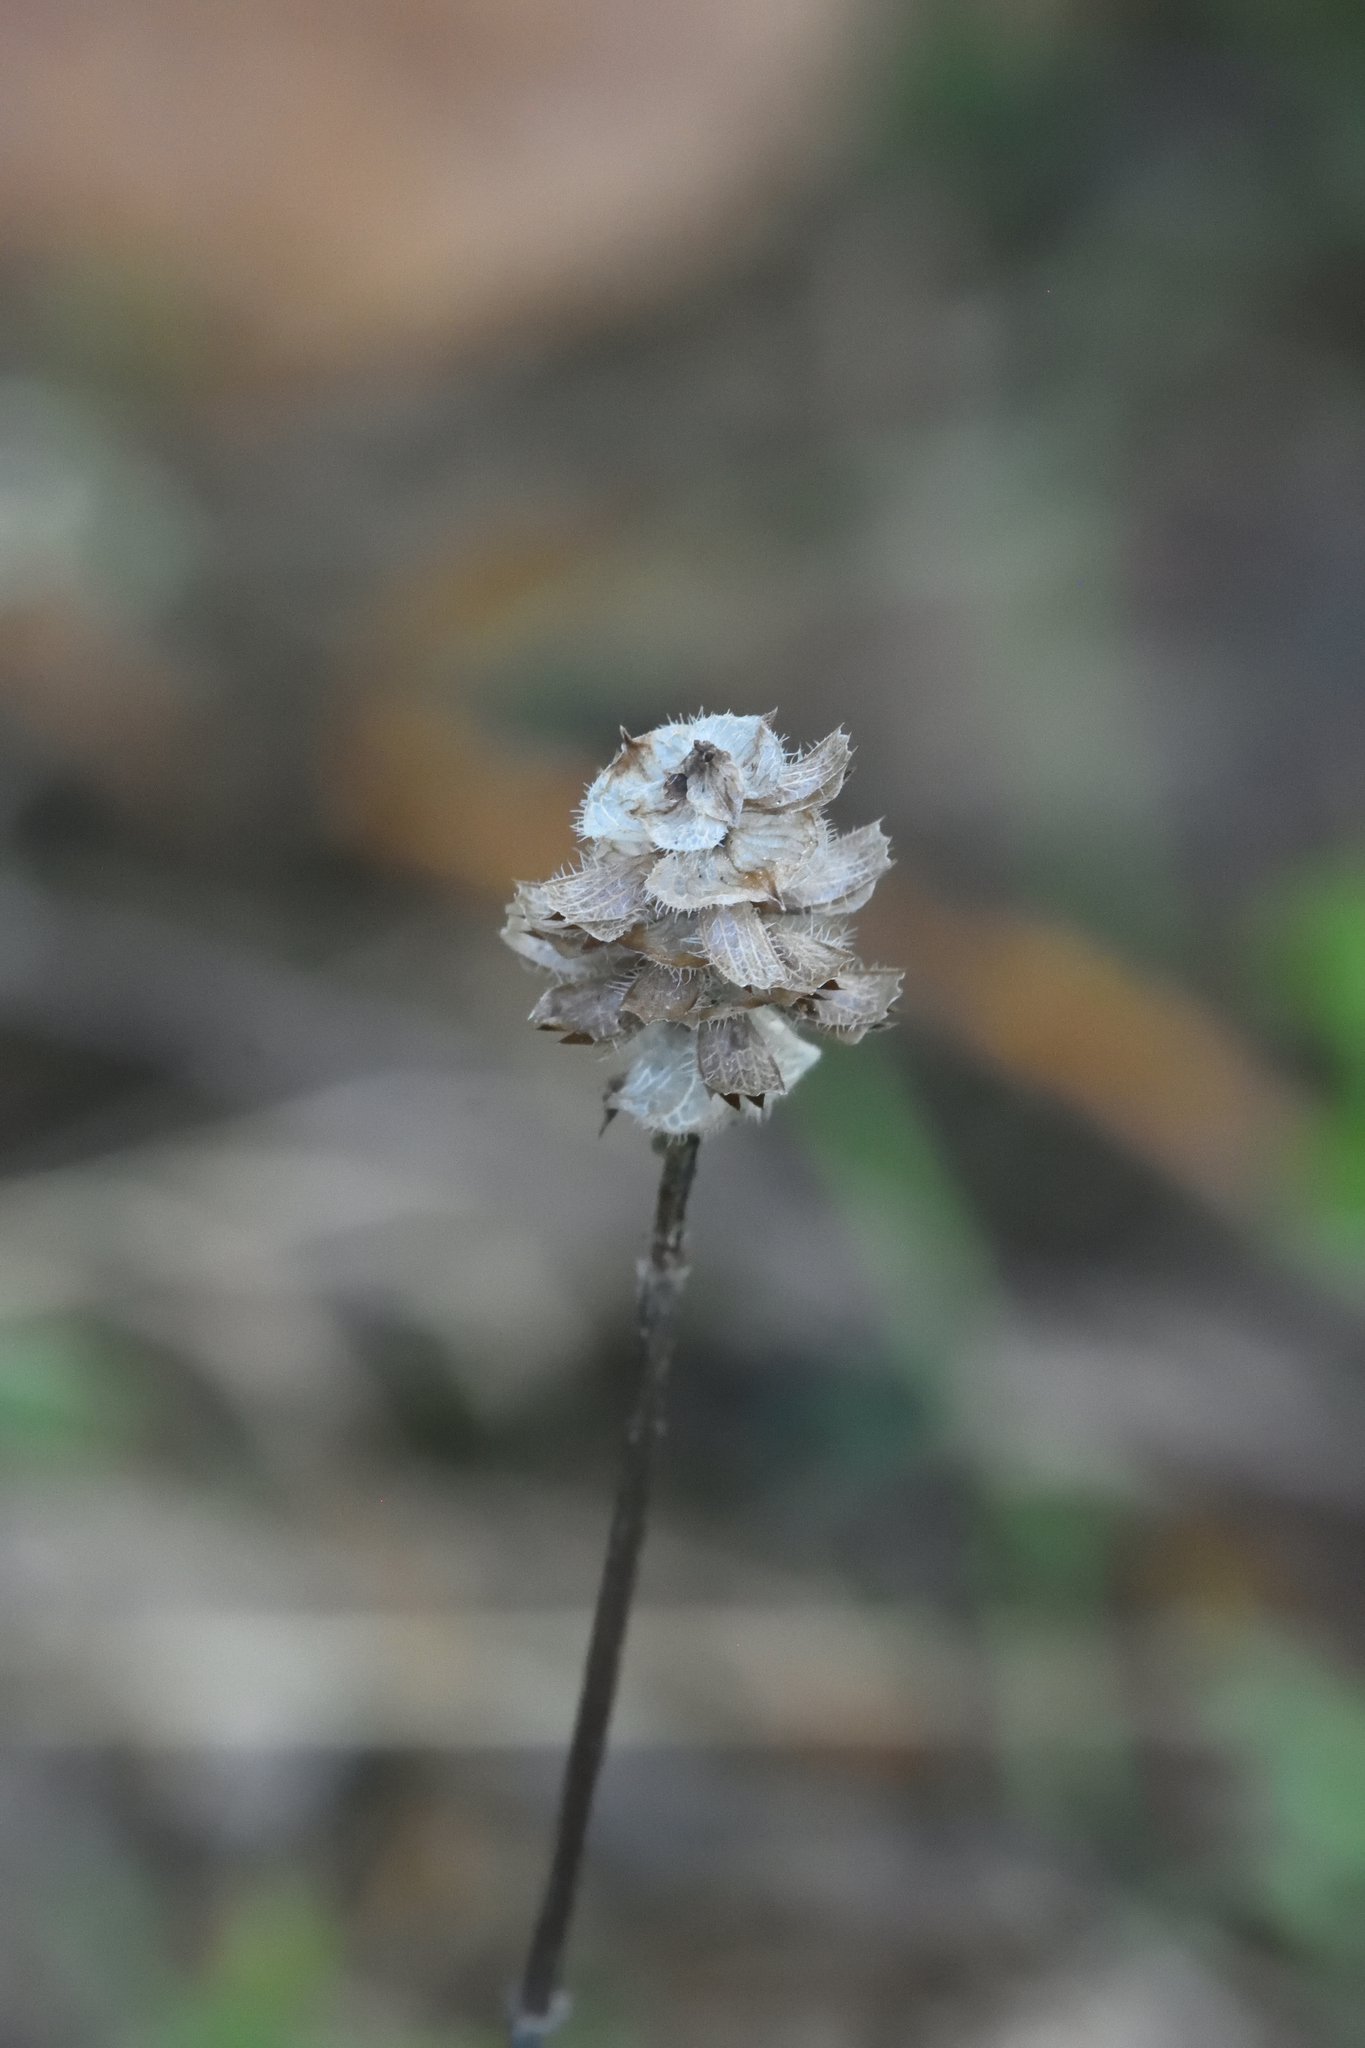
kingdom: Plantae
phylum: Tracheophyta
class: Magnoliopsida
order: Lamiales
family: Lamiaceae
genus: Prunella
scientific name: Prunella vulgaris
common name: Heal-all
